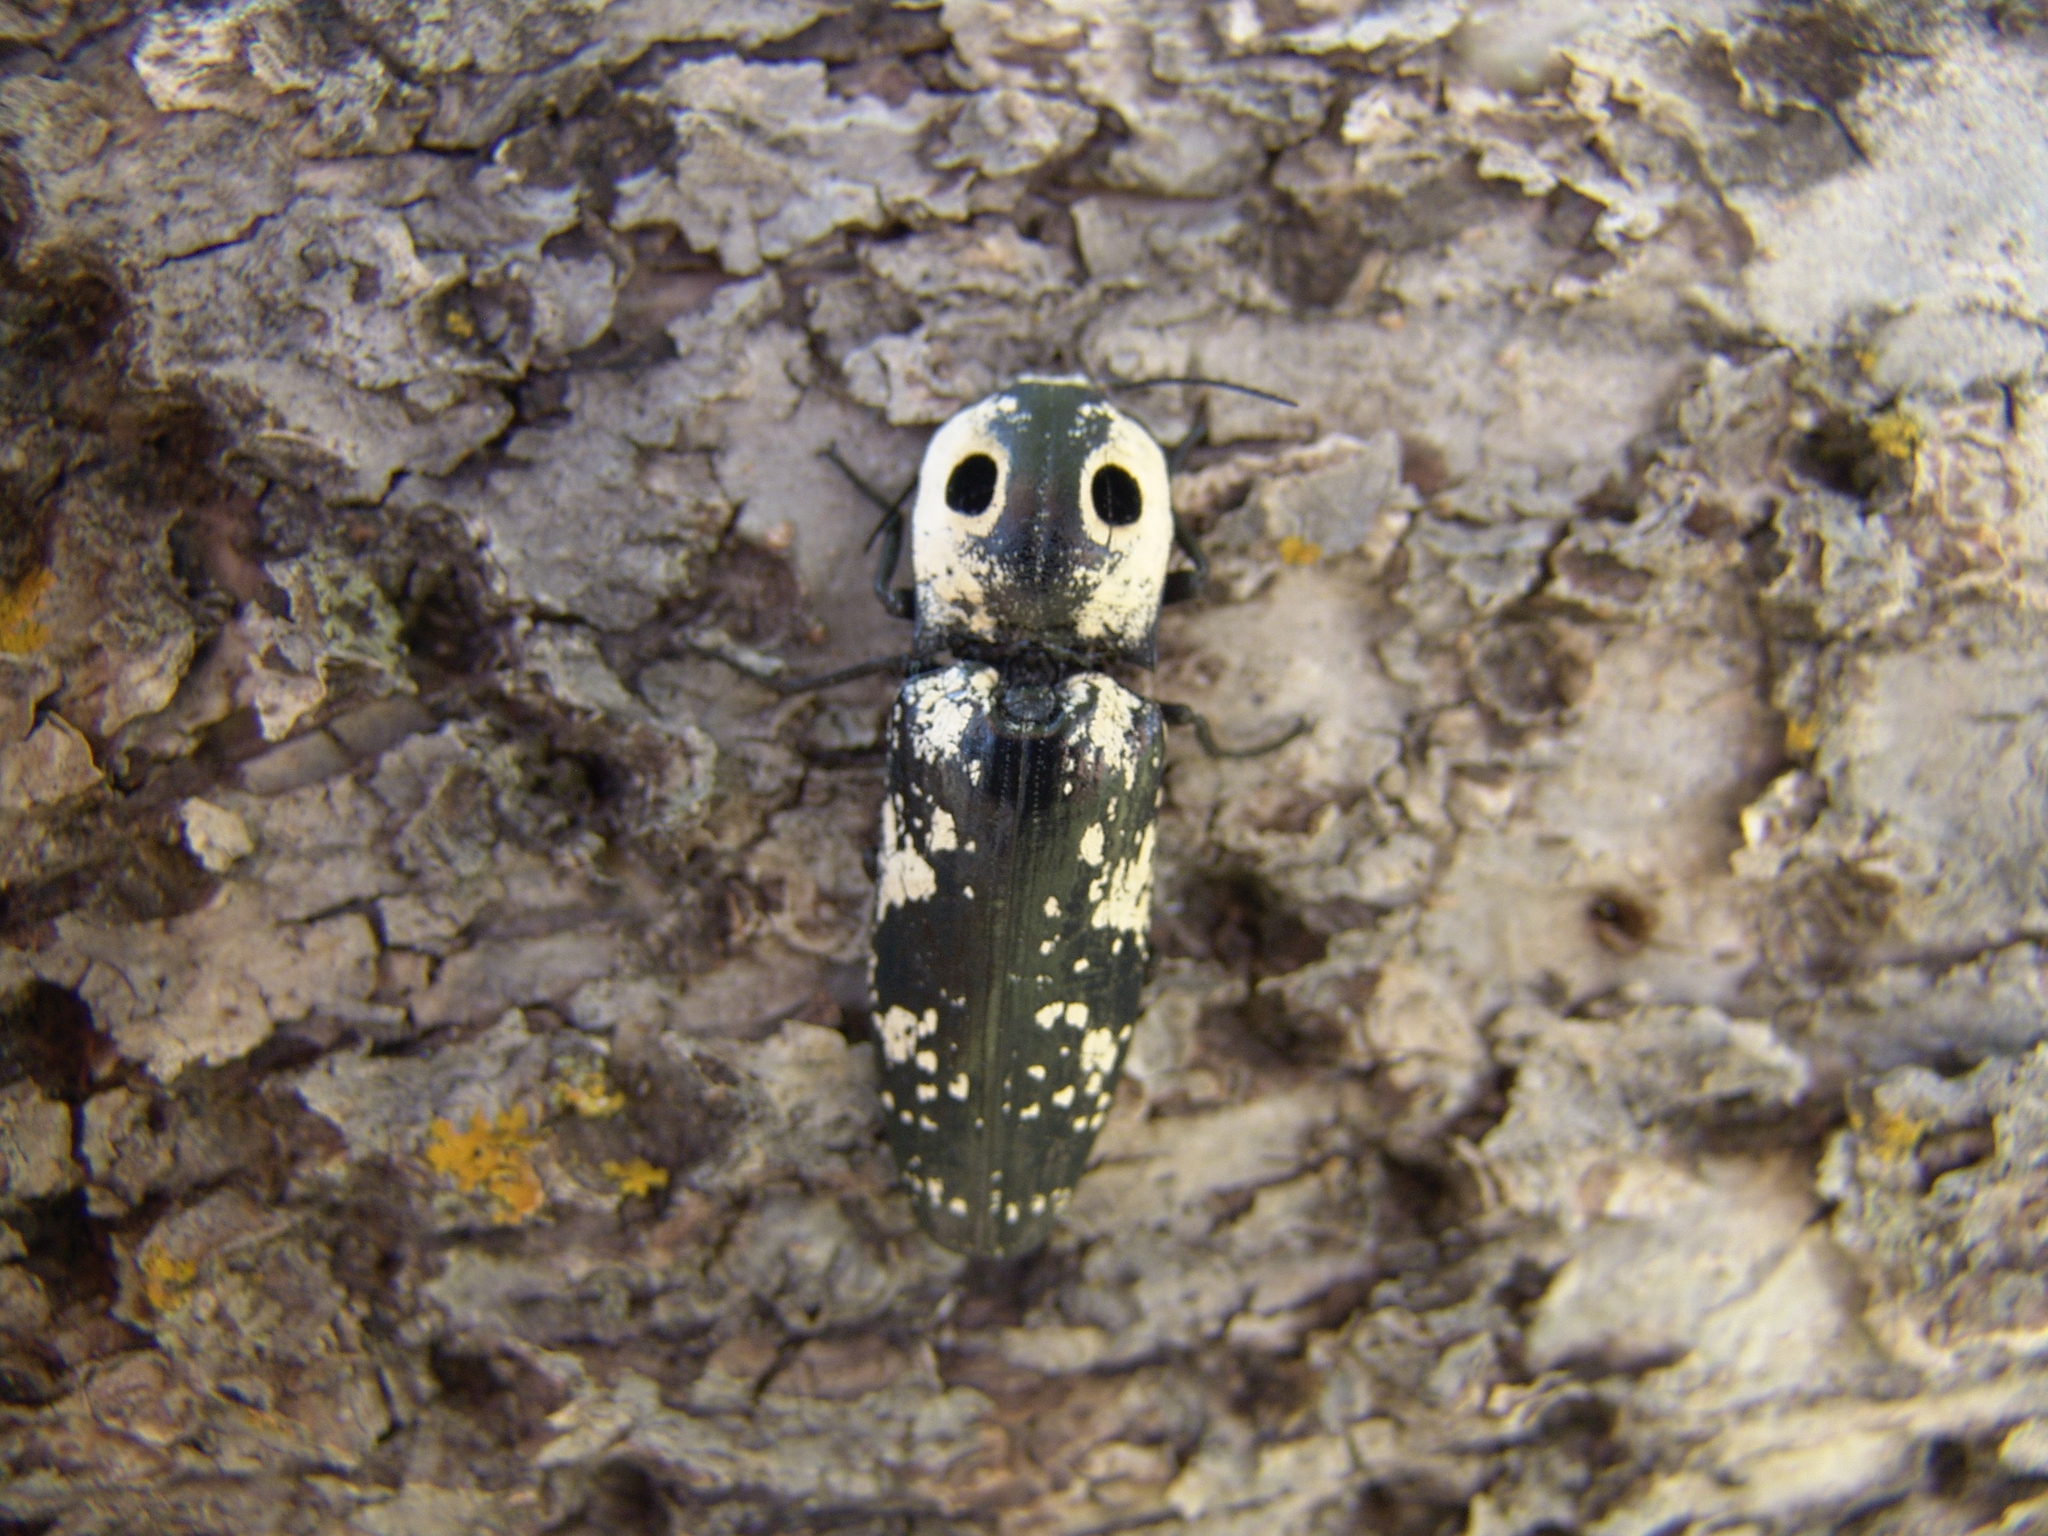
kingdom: Animalia
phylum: Arthropoda
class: Insecta
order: Coleoptera
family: Elateridae
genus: Alaus
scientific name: Alaus zunianus
